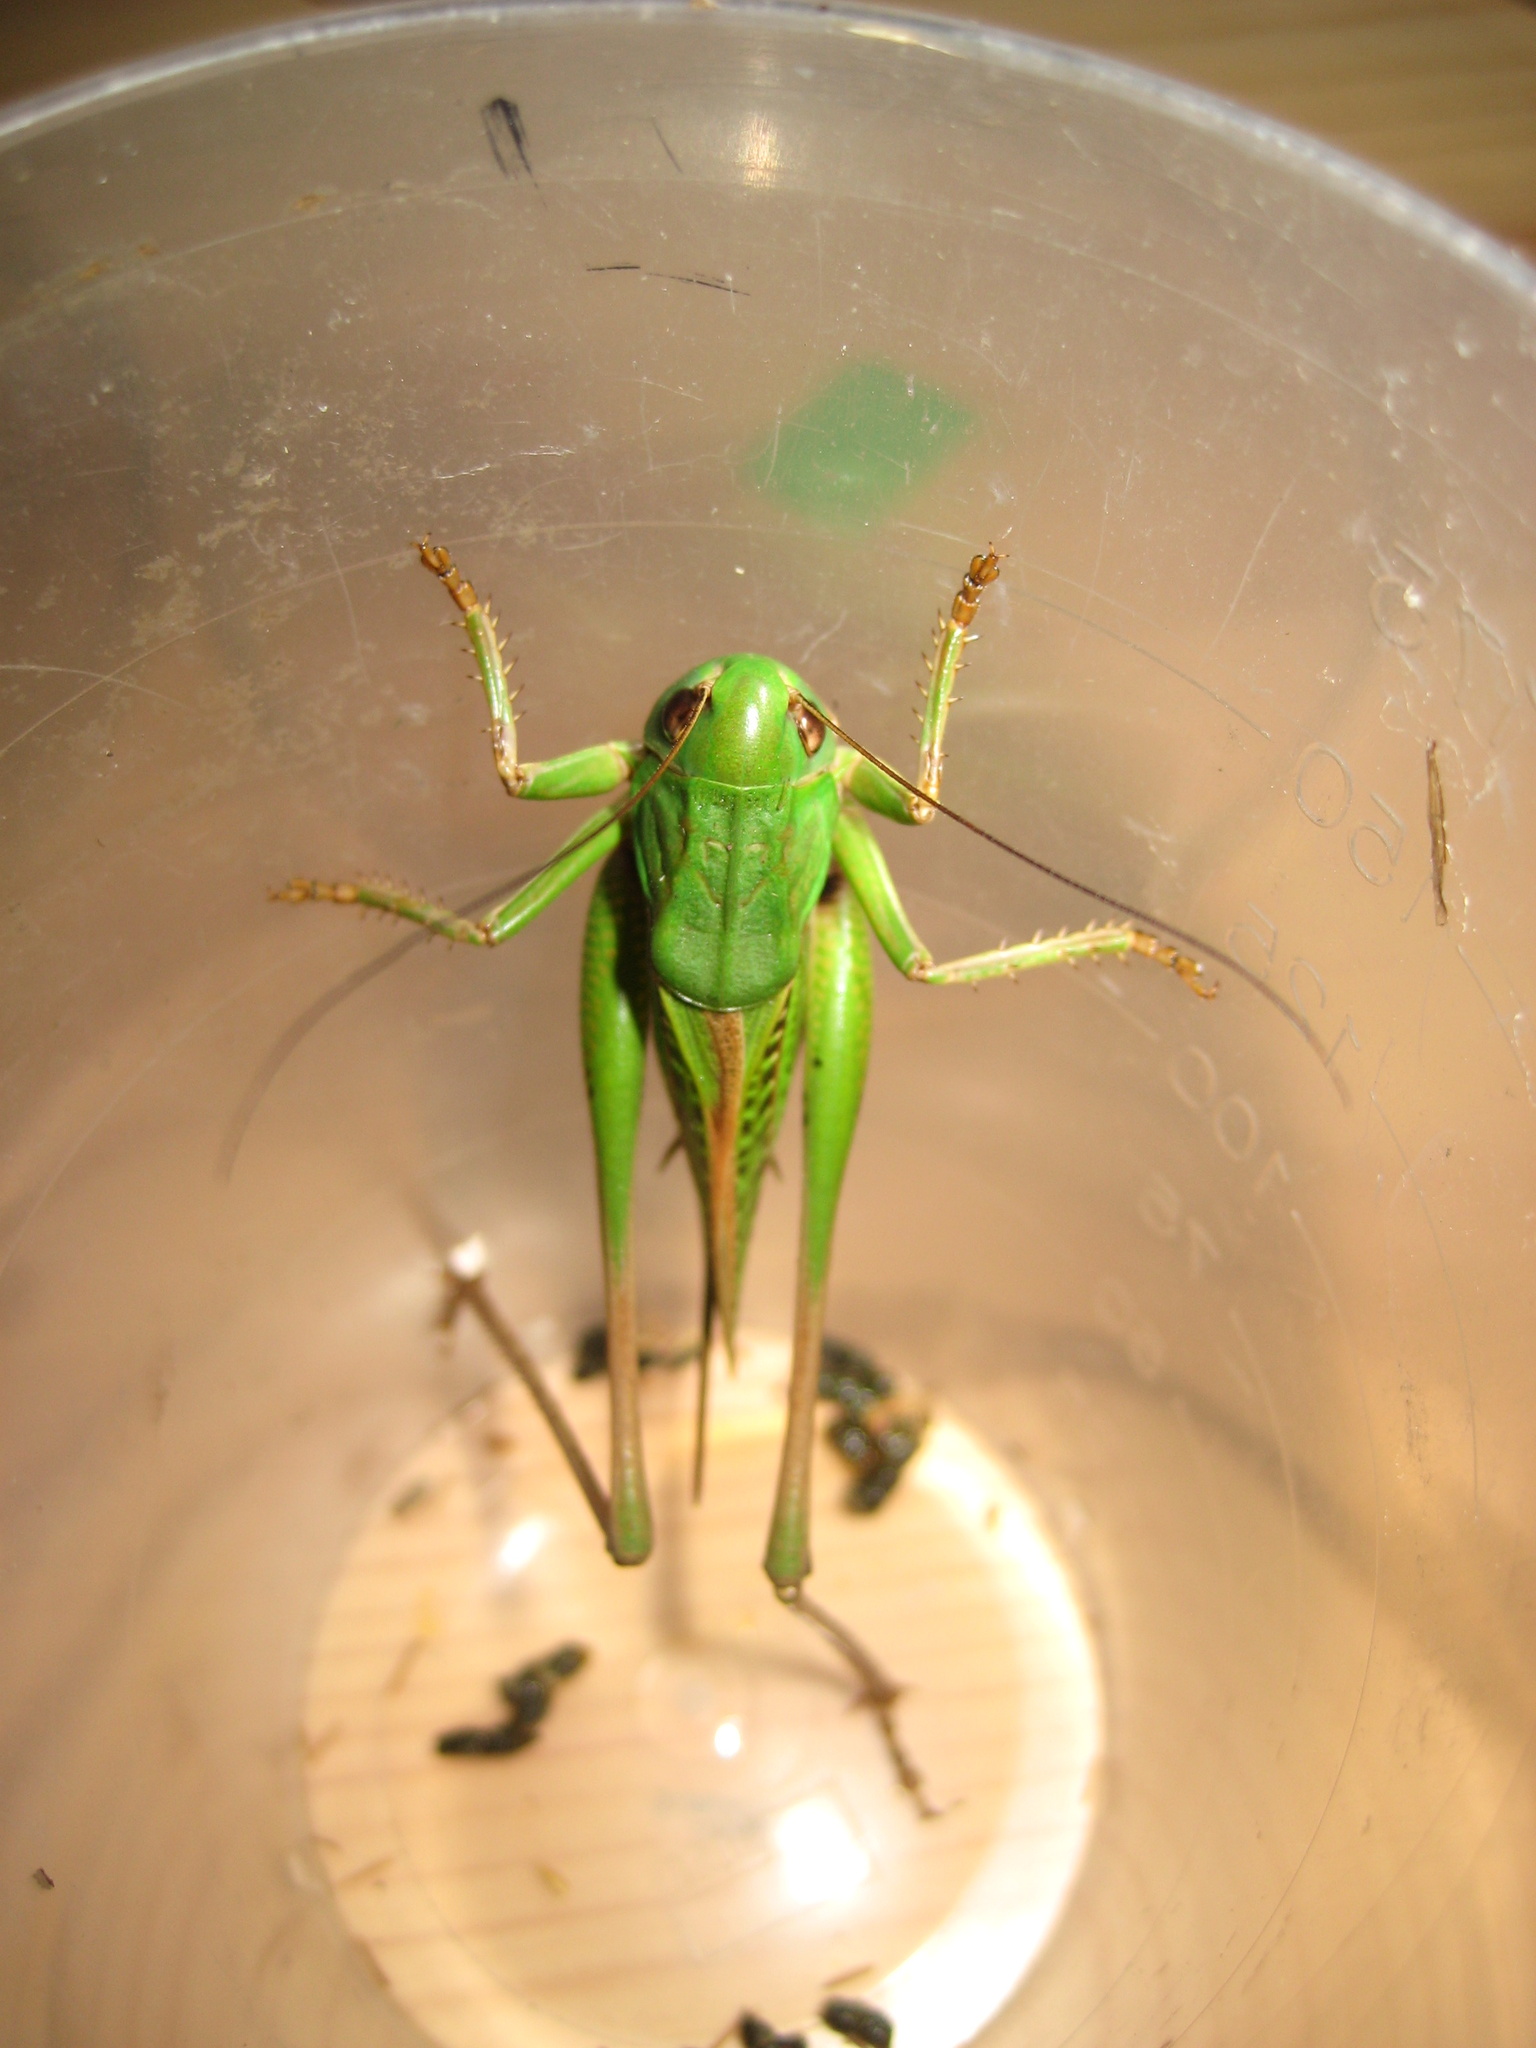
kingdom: Animalia
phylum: Arthropoda
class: Insecta
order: Orthoptera
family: Tettigoniidae
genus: Decticus
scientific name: Decticus verrucivorus
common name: Wart-biter
